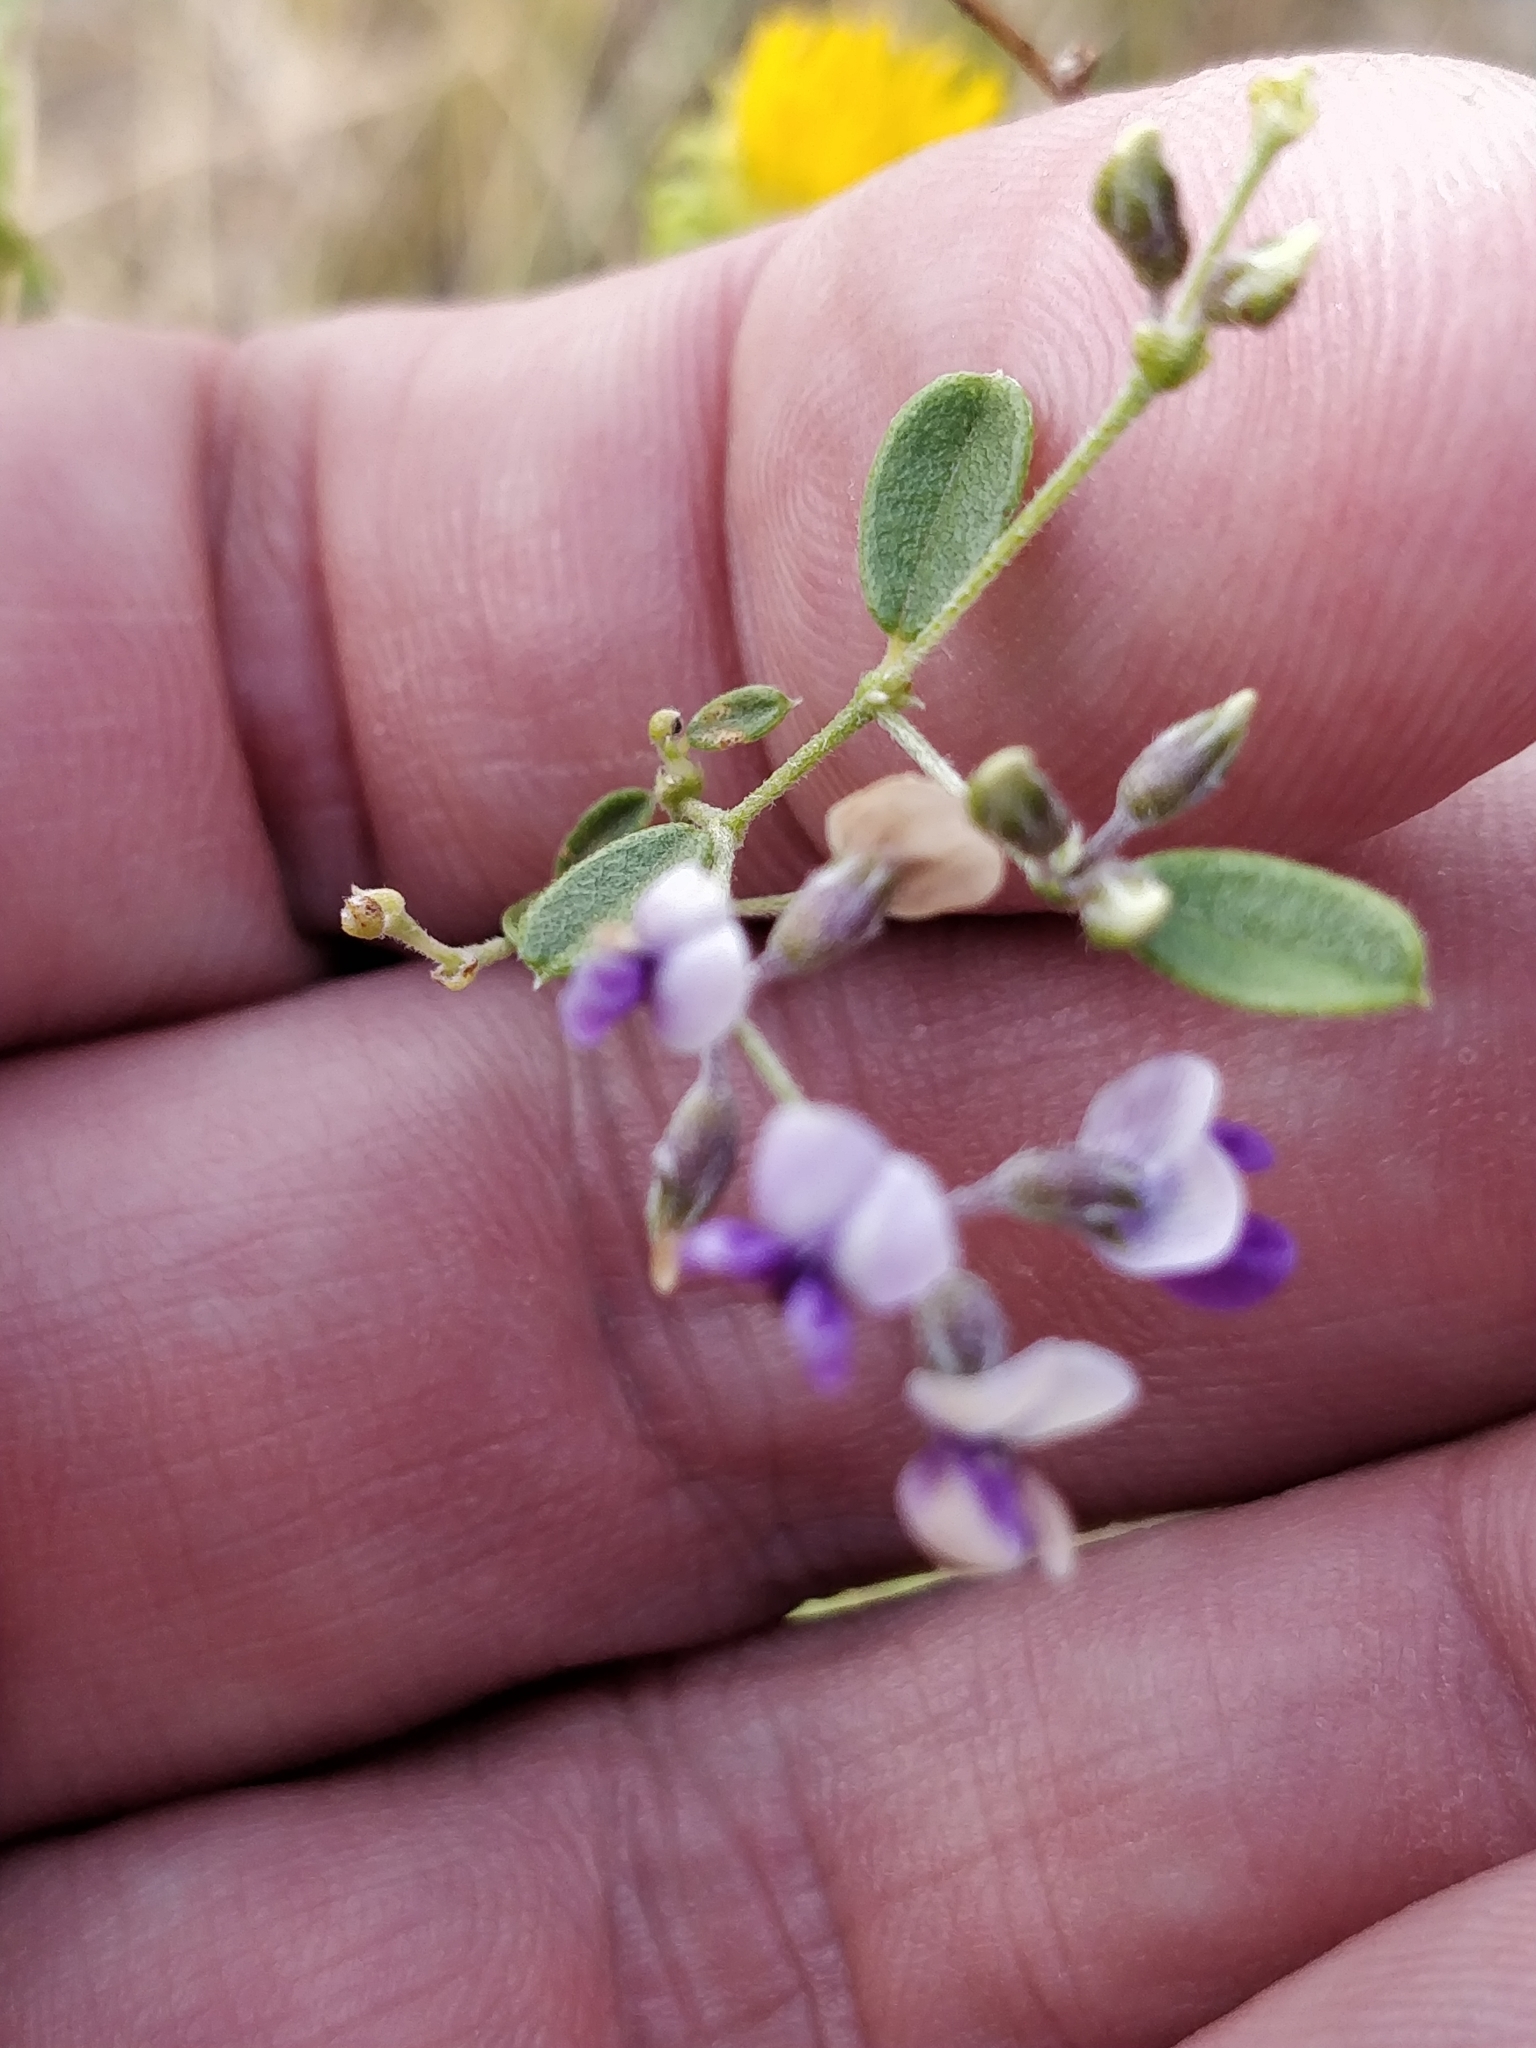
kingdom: Plantae
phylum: Tracheophyta
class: Magnoliopsida
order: Fabales
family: Fabaceae
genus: Pediomelum
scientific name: Pediomelum tenuiflorum
